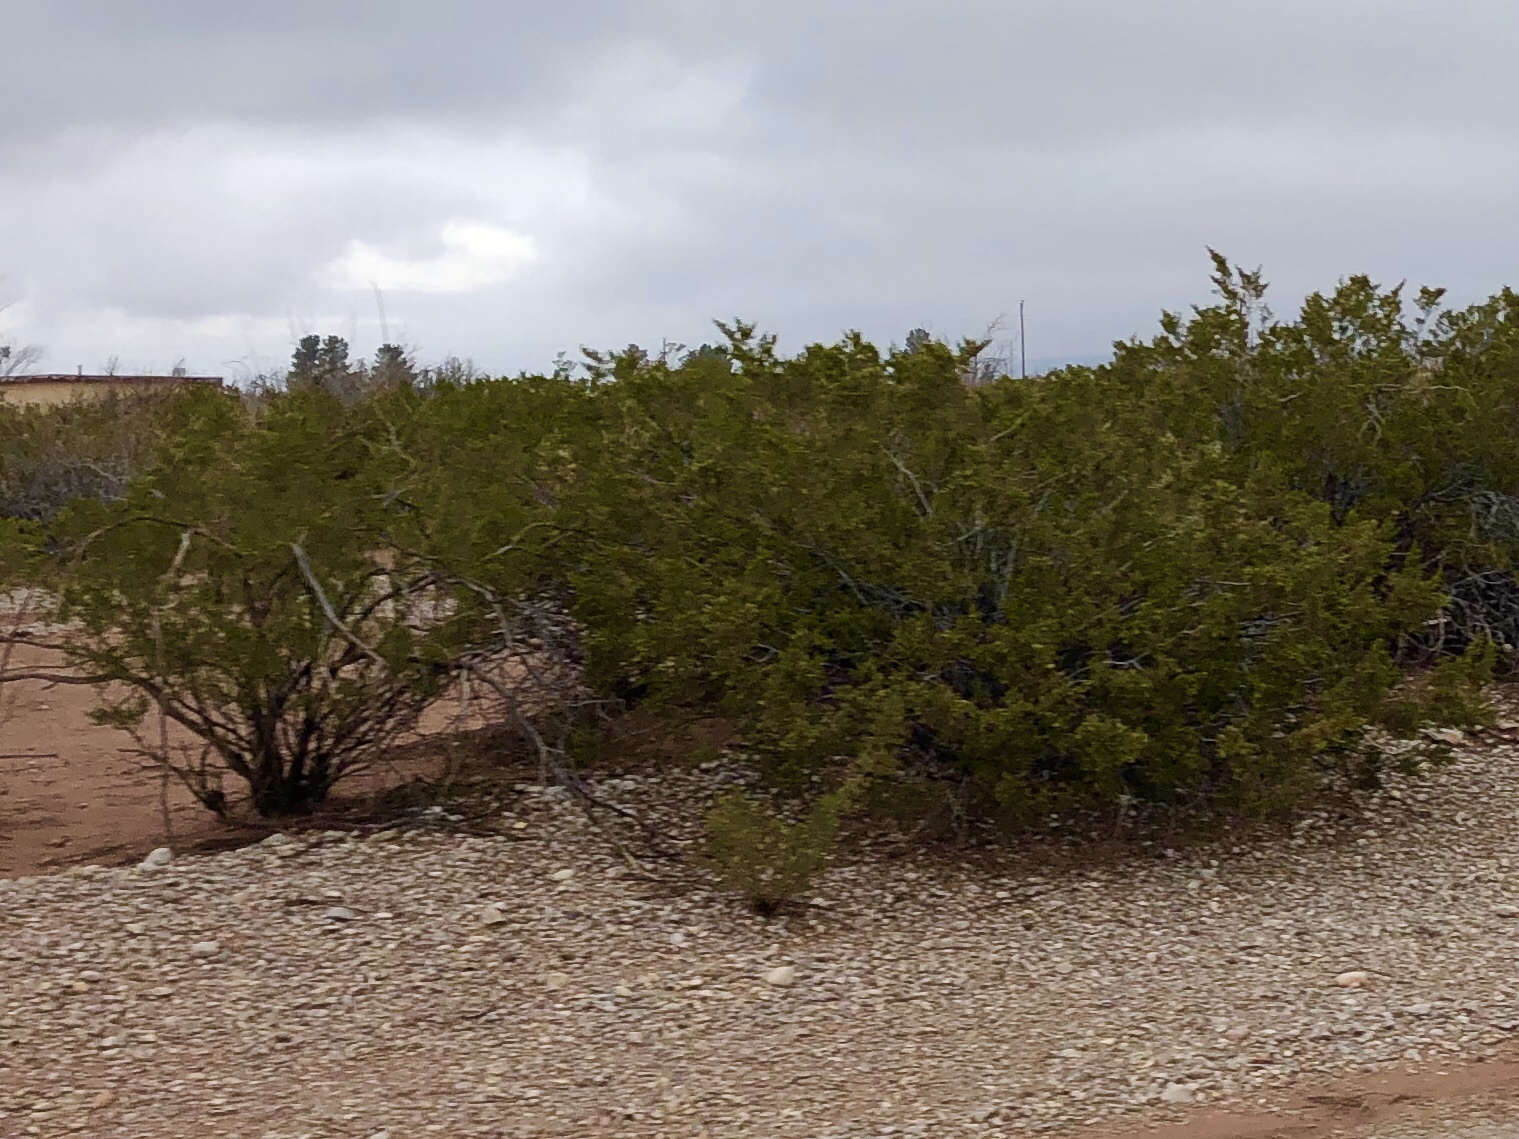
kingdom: Plantae
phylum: Tracheophyta
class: Magnoliopsida
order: Zygophyllales
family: Zygophyllaceae
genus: Larrea
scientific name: Larrea tridentata
